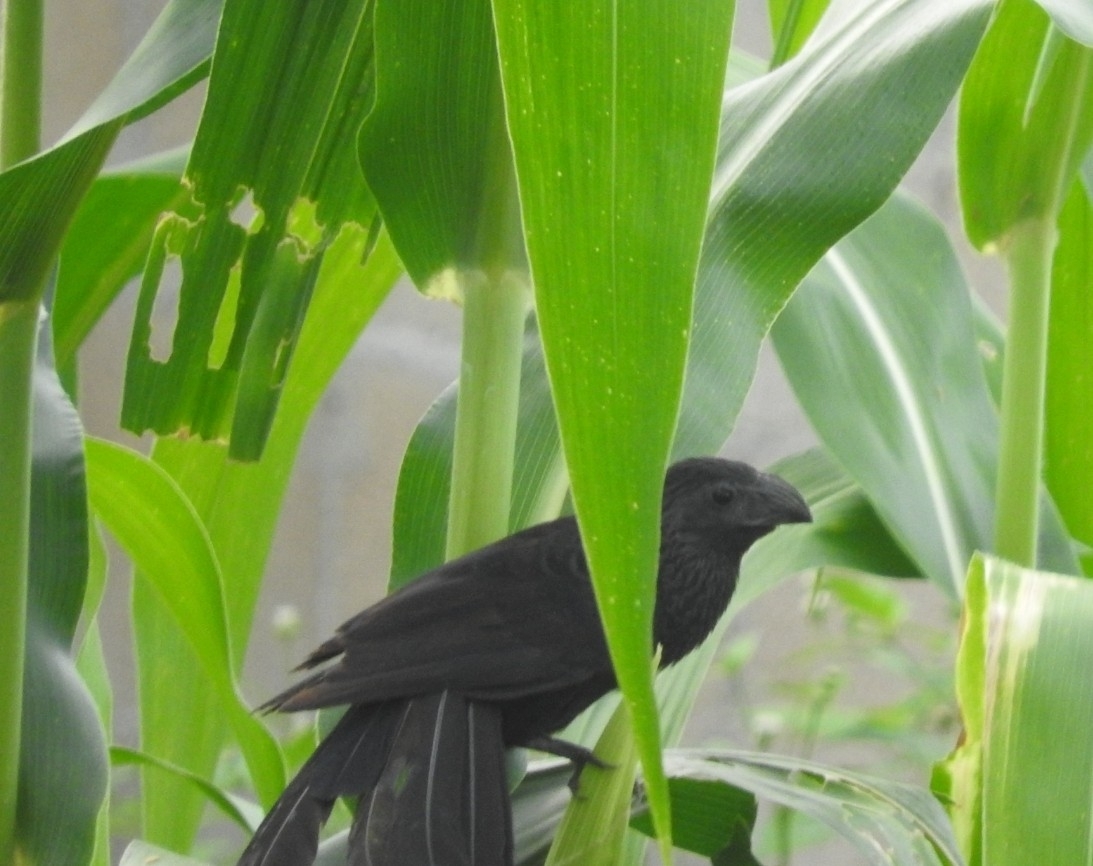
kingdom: Animalia
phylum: Chordata
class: Aves
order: Cuculiformes
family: Cuculidae
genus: Crotophaga
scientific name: Crotophaga sulcirostris
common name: Groove-billed ani
